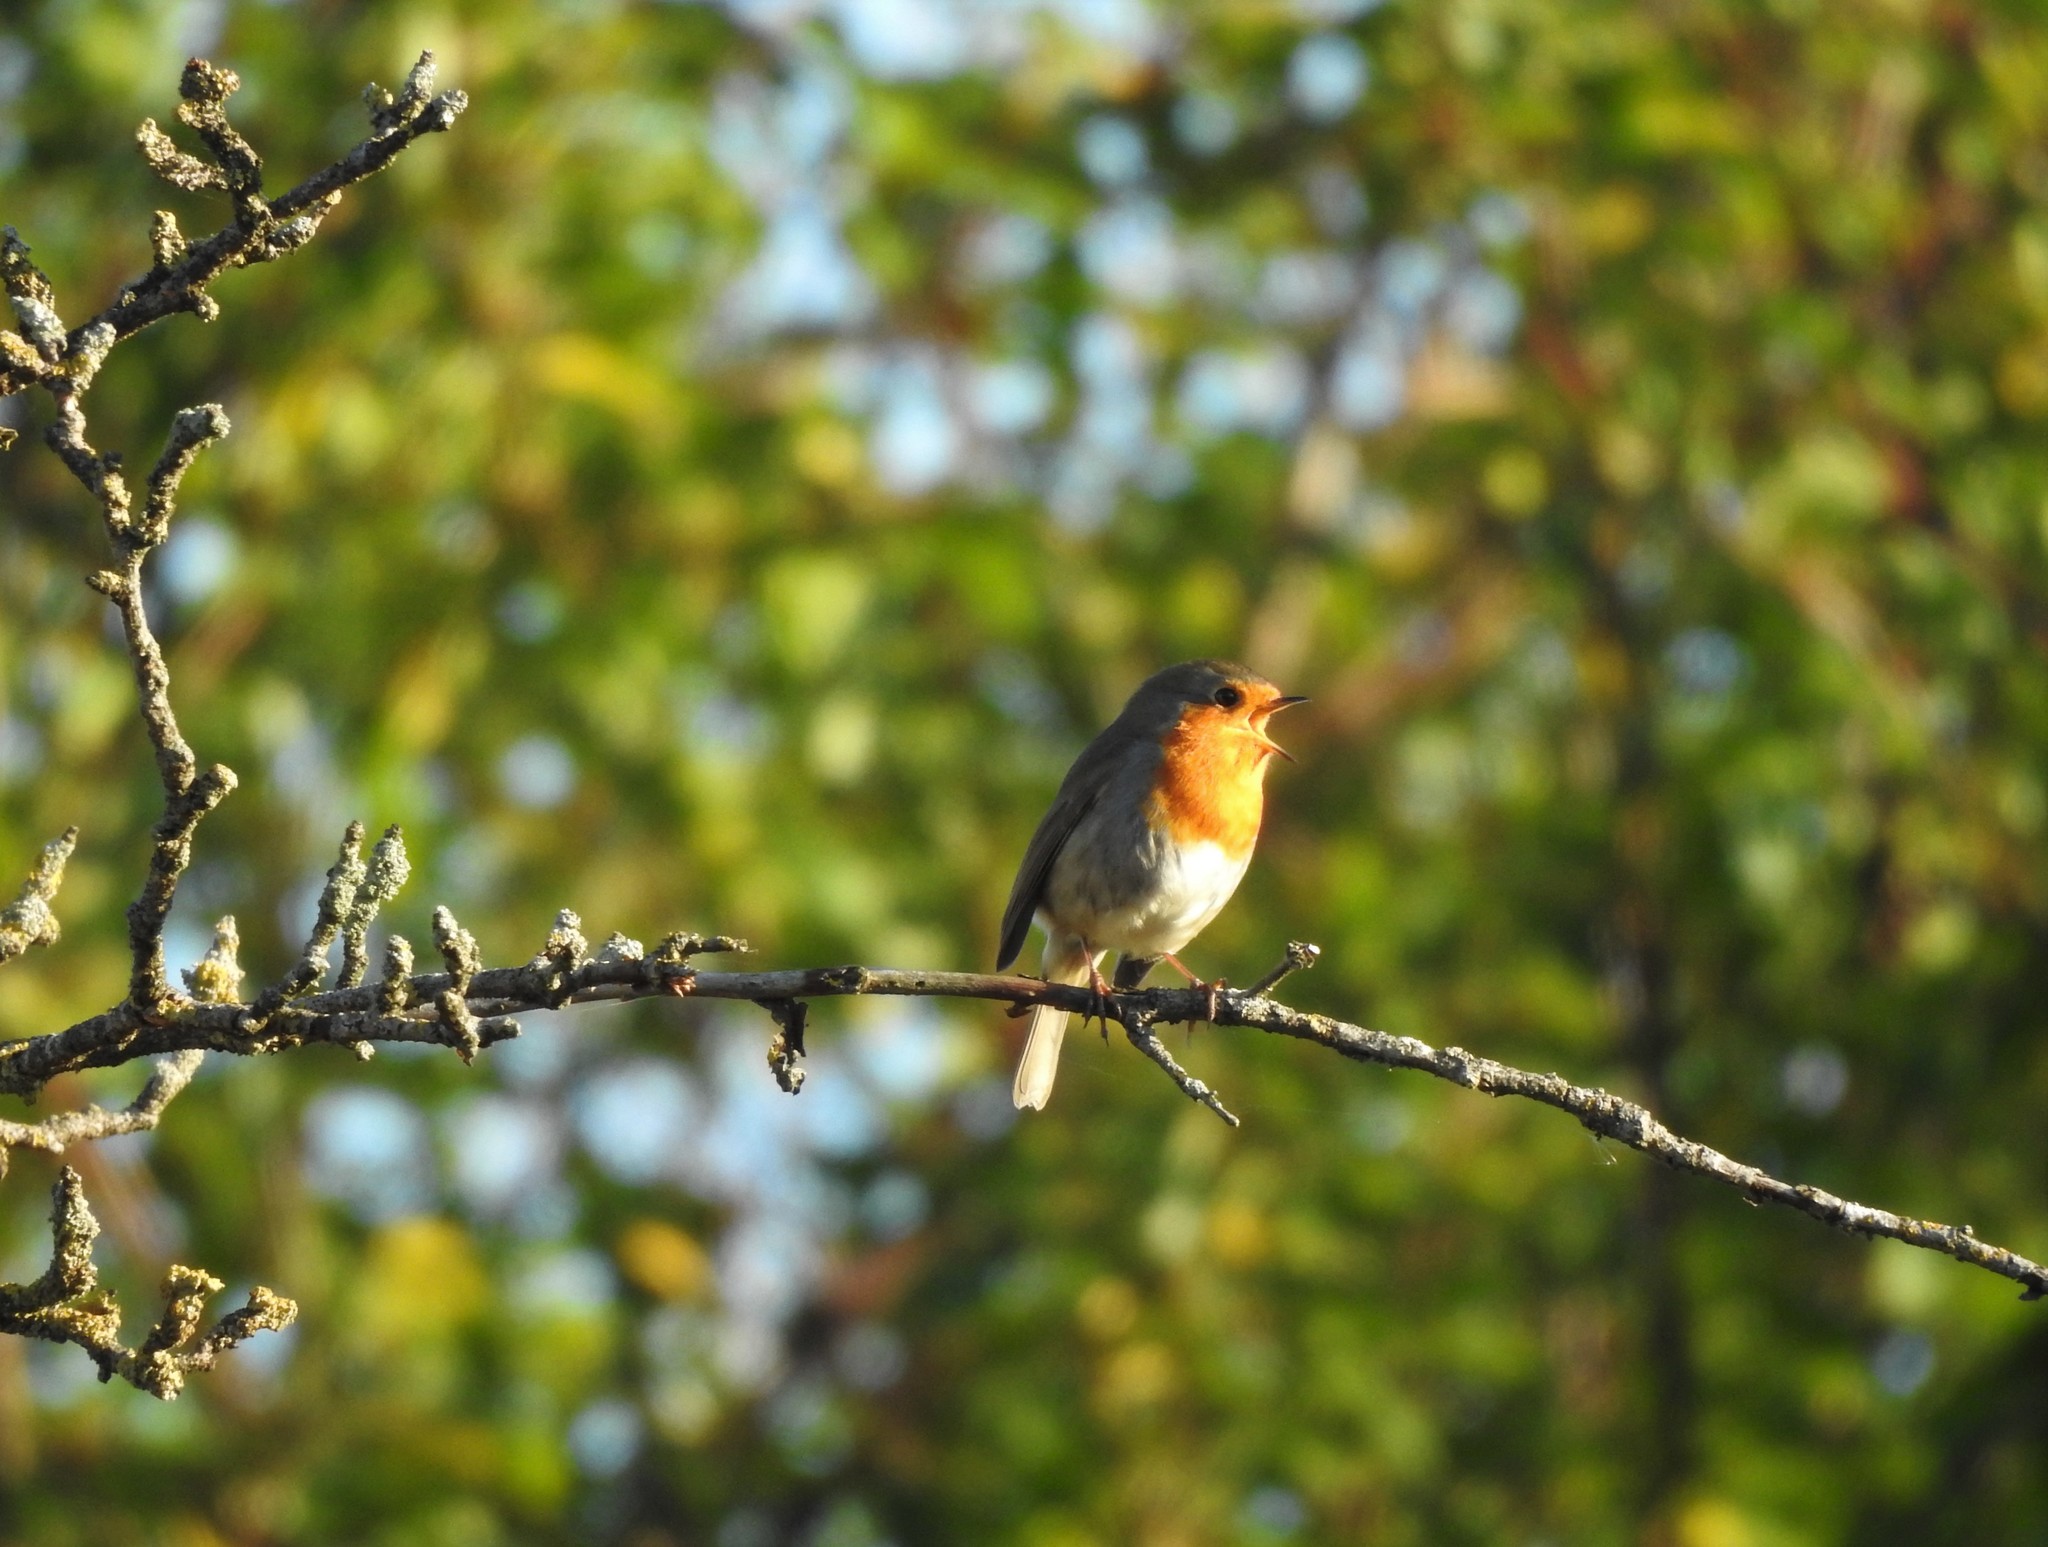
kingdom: Animalia
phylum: Chordata
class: Aves
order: Passeriformes
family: Muscicapidae
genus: Erithacus
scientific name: Erithacus rubecula
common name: European robin
